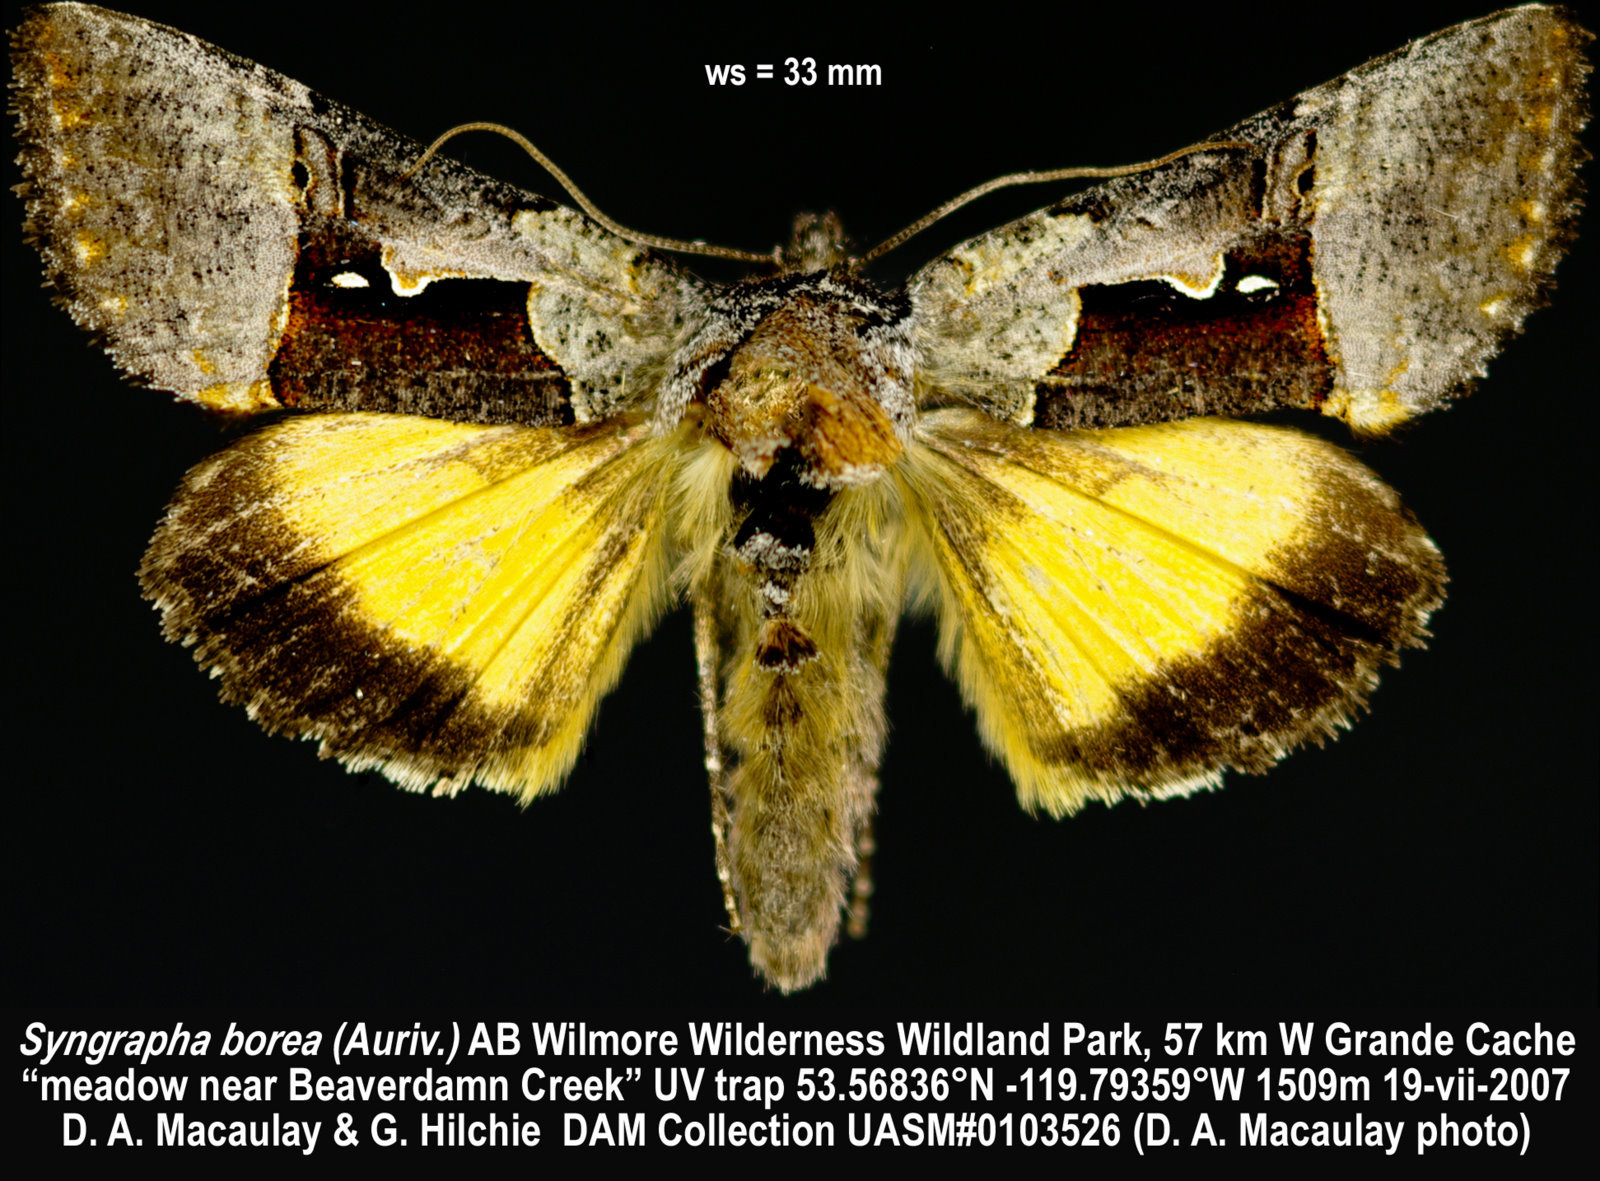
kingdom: Animalia
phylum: Arthropoda
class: Insecta
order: Lepidoptera
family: Noctuidae
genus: Syngrapha
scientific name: Syngrapha borea
